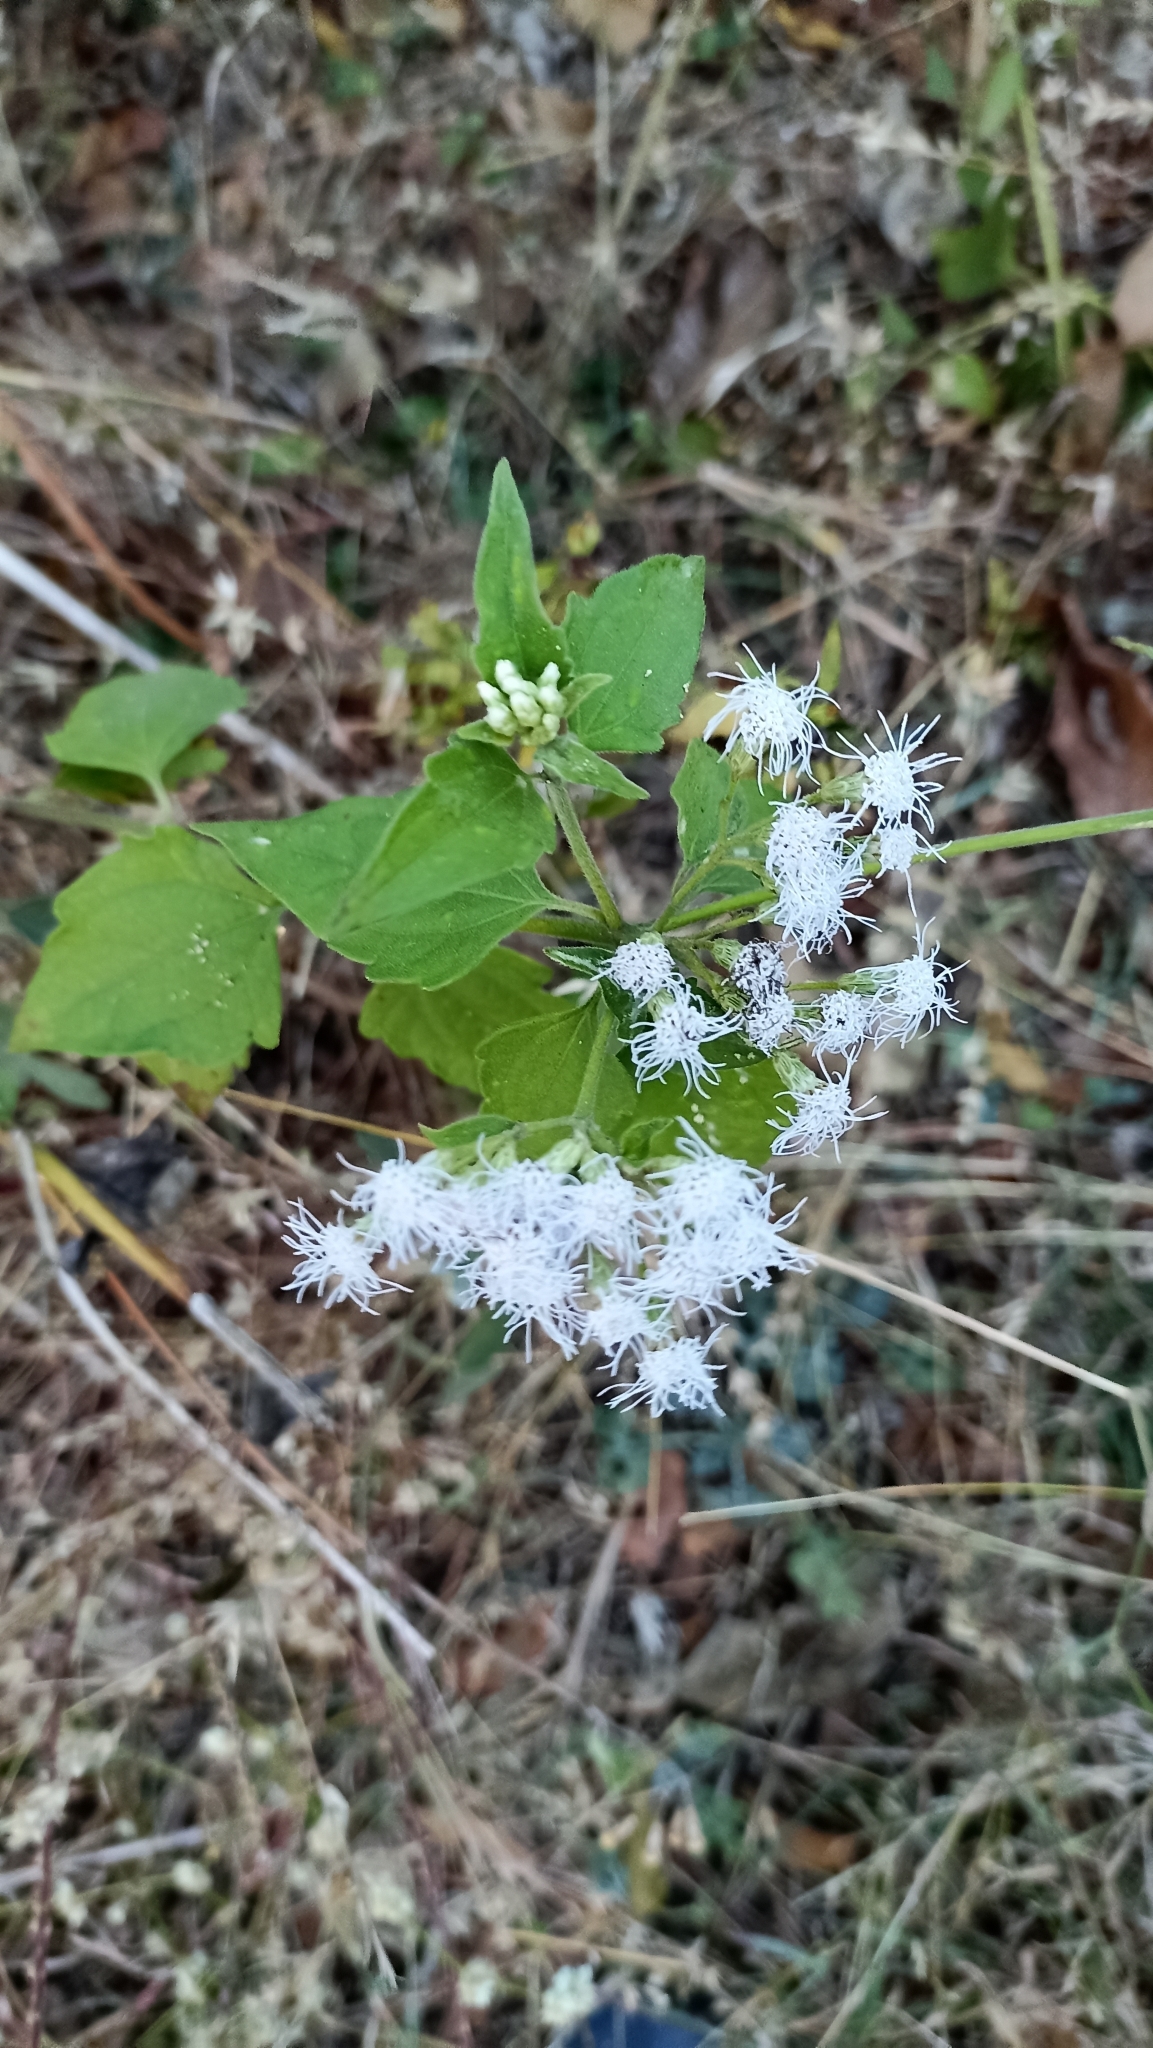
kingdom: Plantae
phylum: Tracheophyta
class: Magnoliopsida
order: Asterales
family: Asteraceae
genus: Chromolaena
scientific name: Chromolaena odorata
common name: Siamweed
